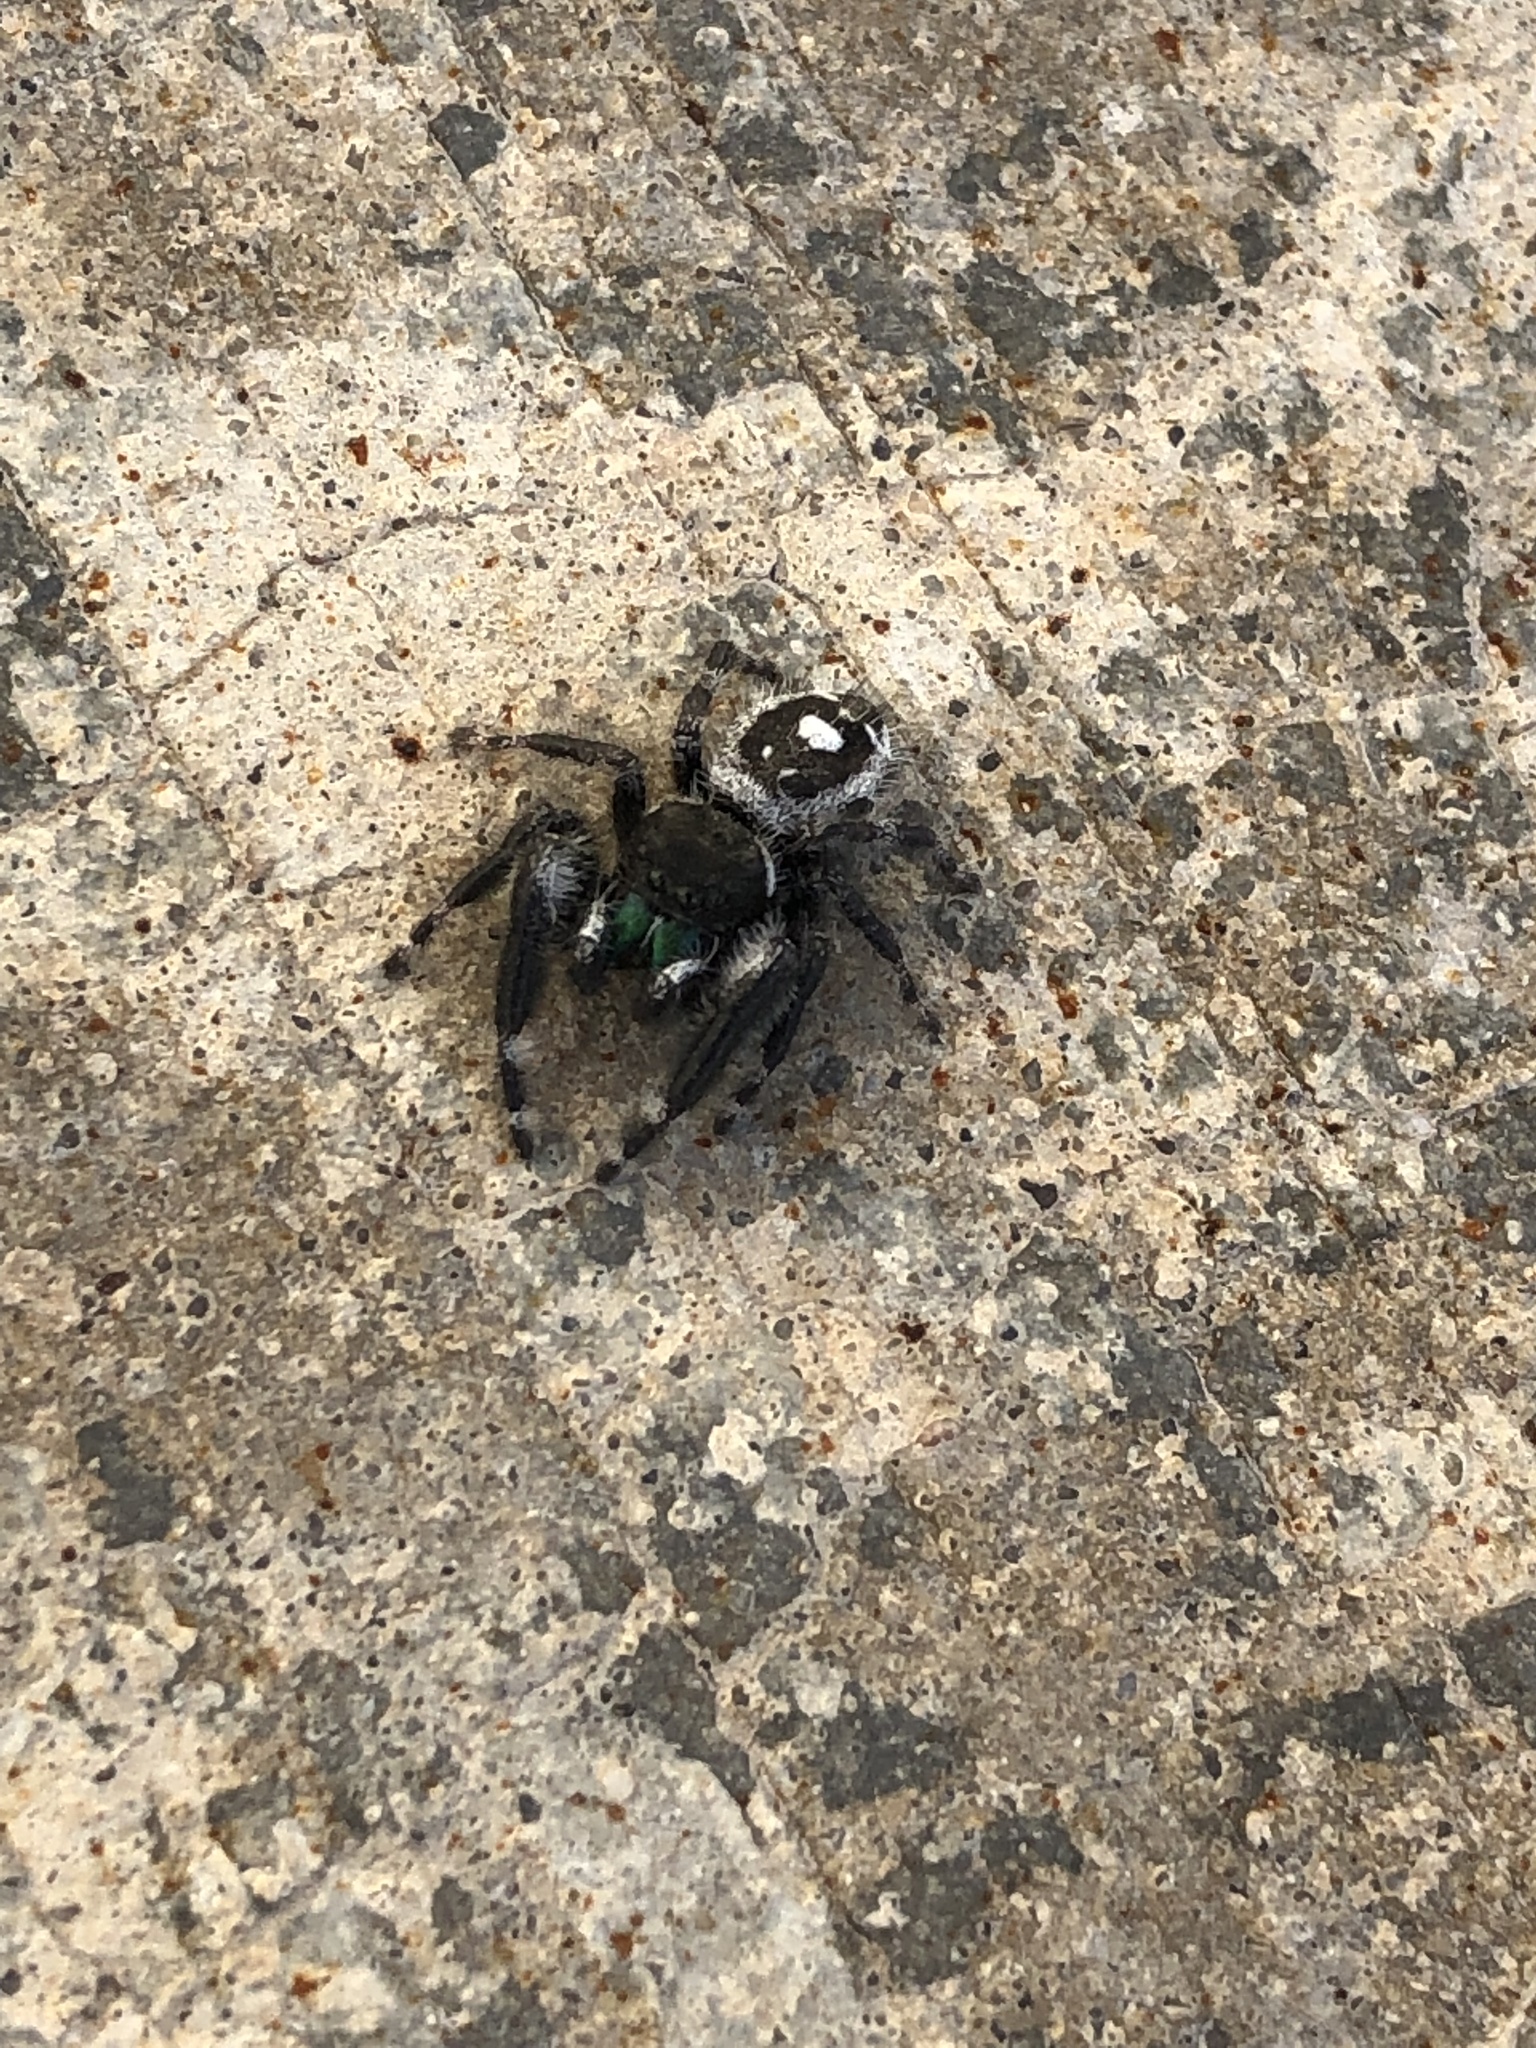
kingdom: Animalia
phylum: Arthropoda
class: Arachnida
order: Araneae
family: Salticidae
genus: Phidippus
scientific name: Phidippus audax
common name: Bold jumper
